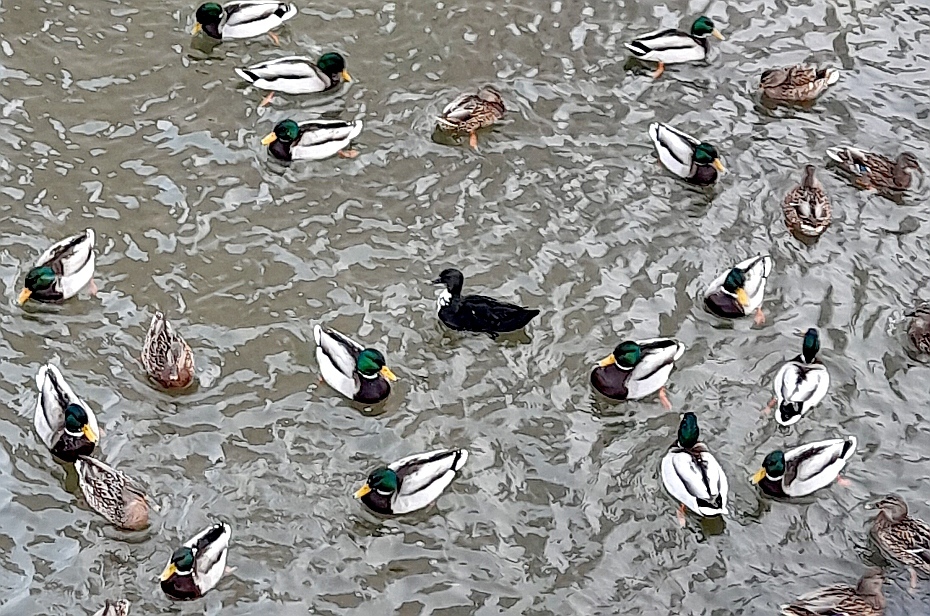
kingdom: Animalia
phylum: Chordata
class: Aves
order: Anseriformes
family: Anatidae
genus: Anas
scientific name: Anas platyrhynchos
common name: Mallard
